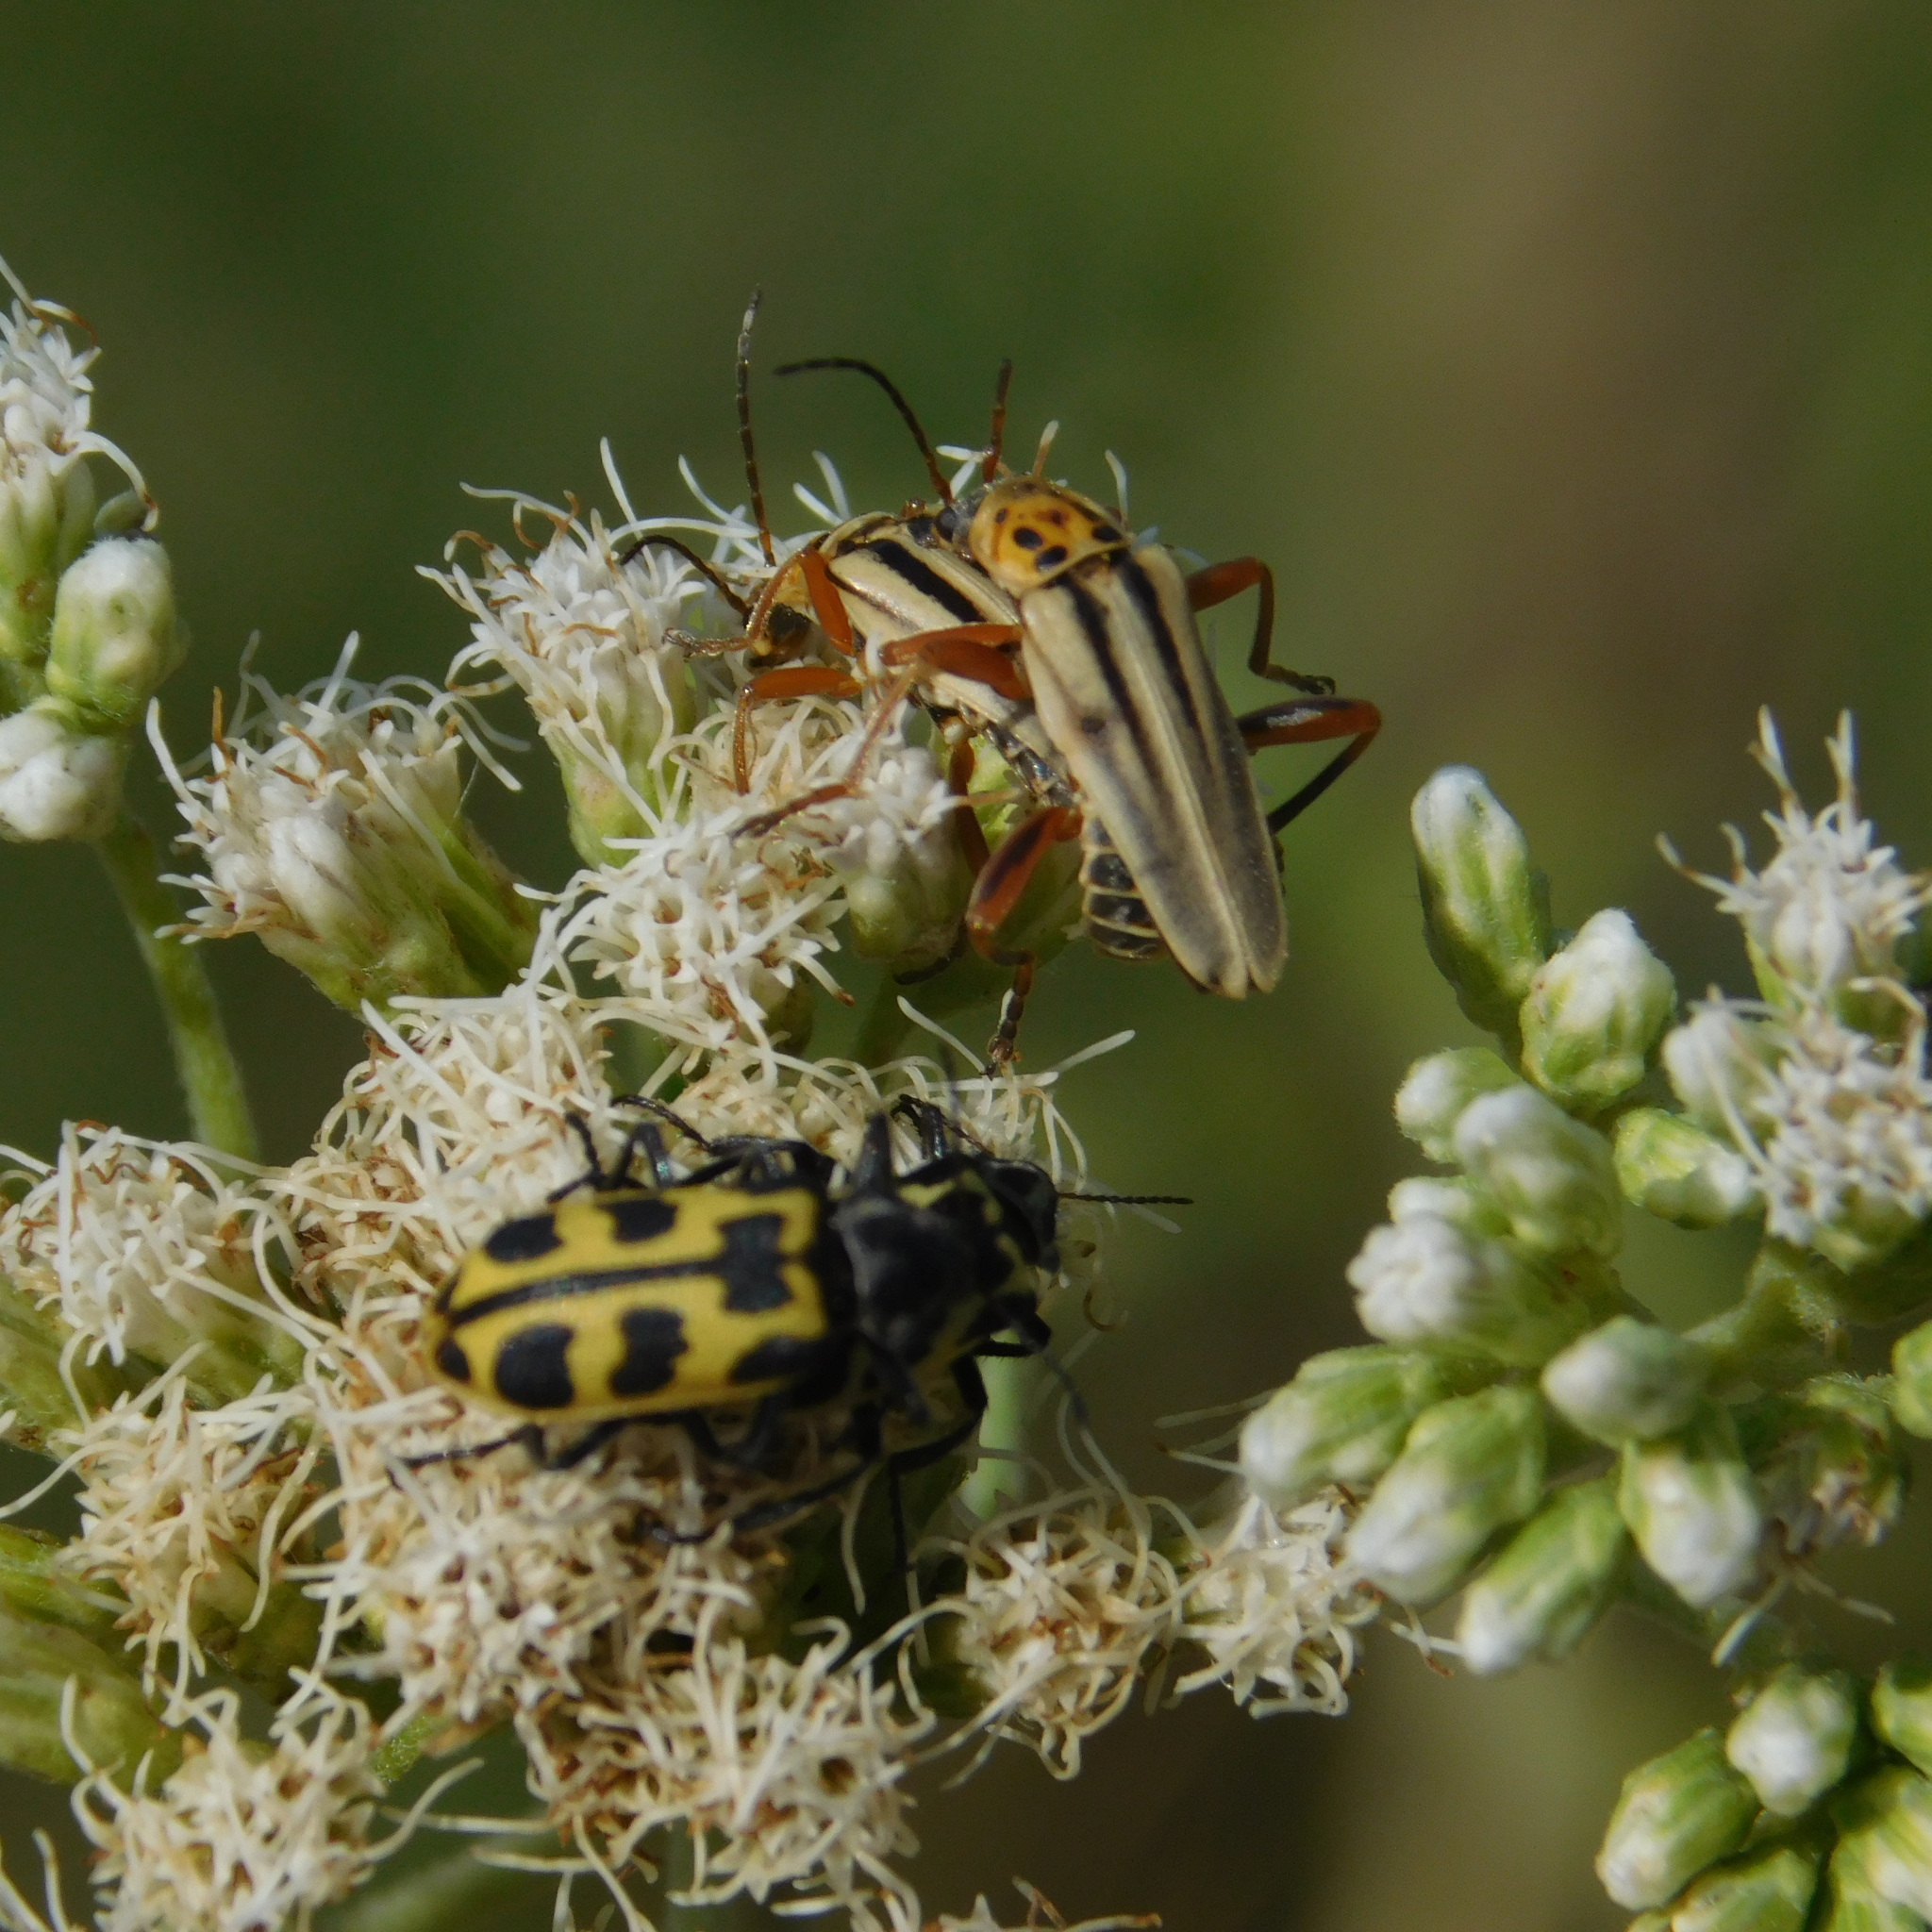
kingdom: Animalia
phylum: Arthropoda
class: Insecta
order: Coleoptera
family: Cantharidae
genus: Chauliognathus
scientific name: Chauliognathus
